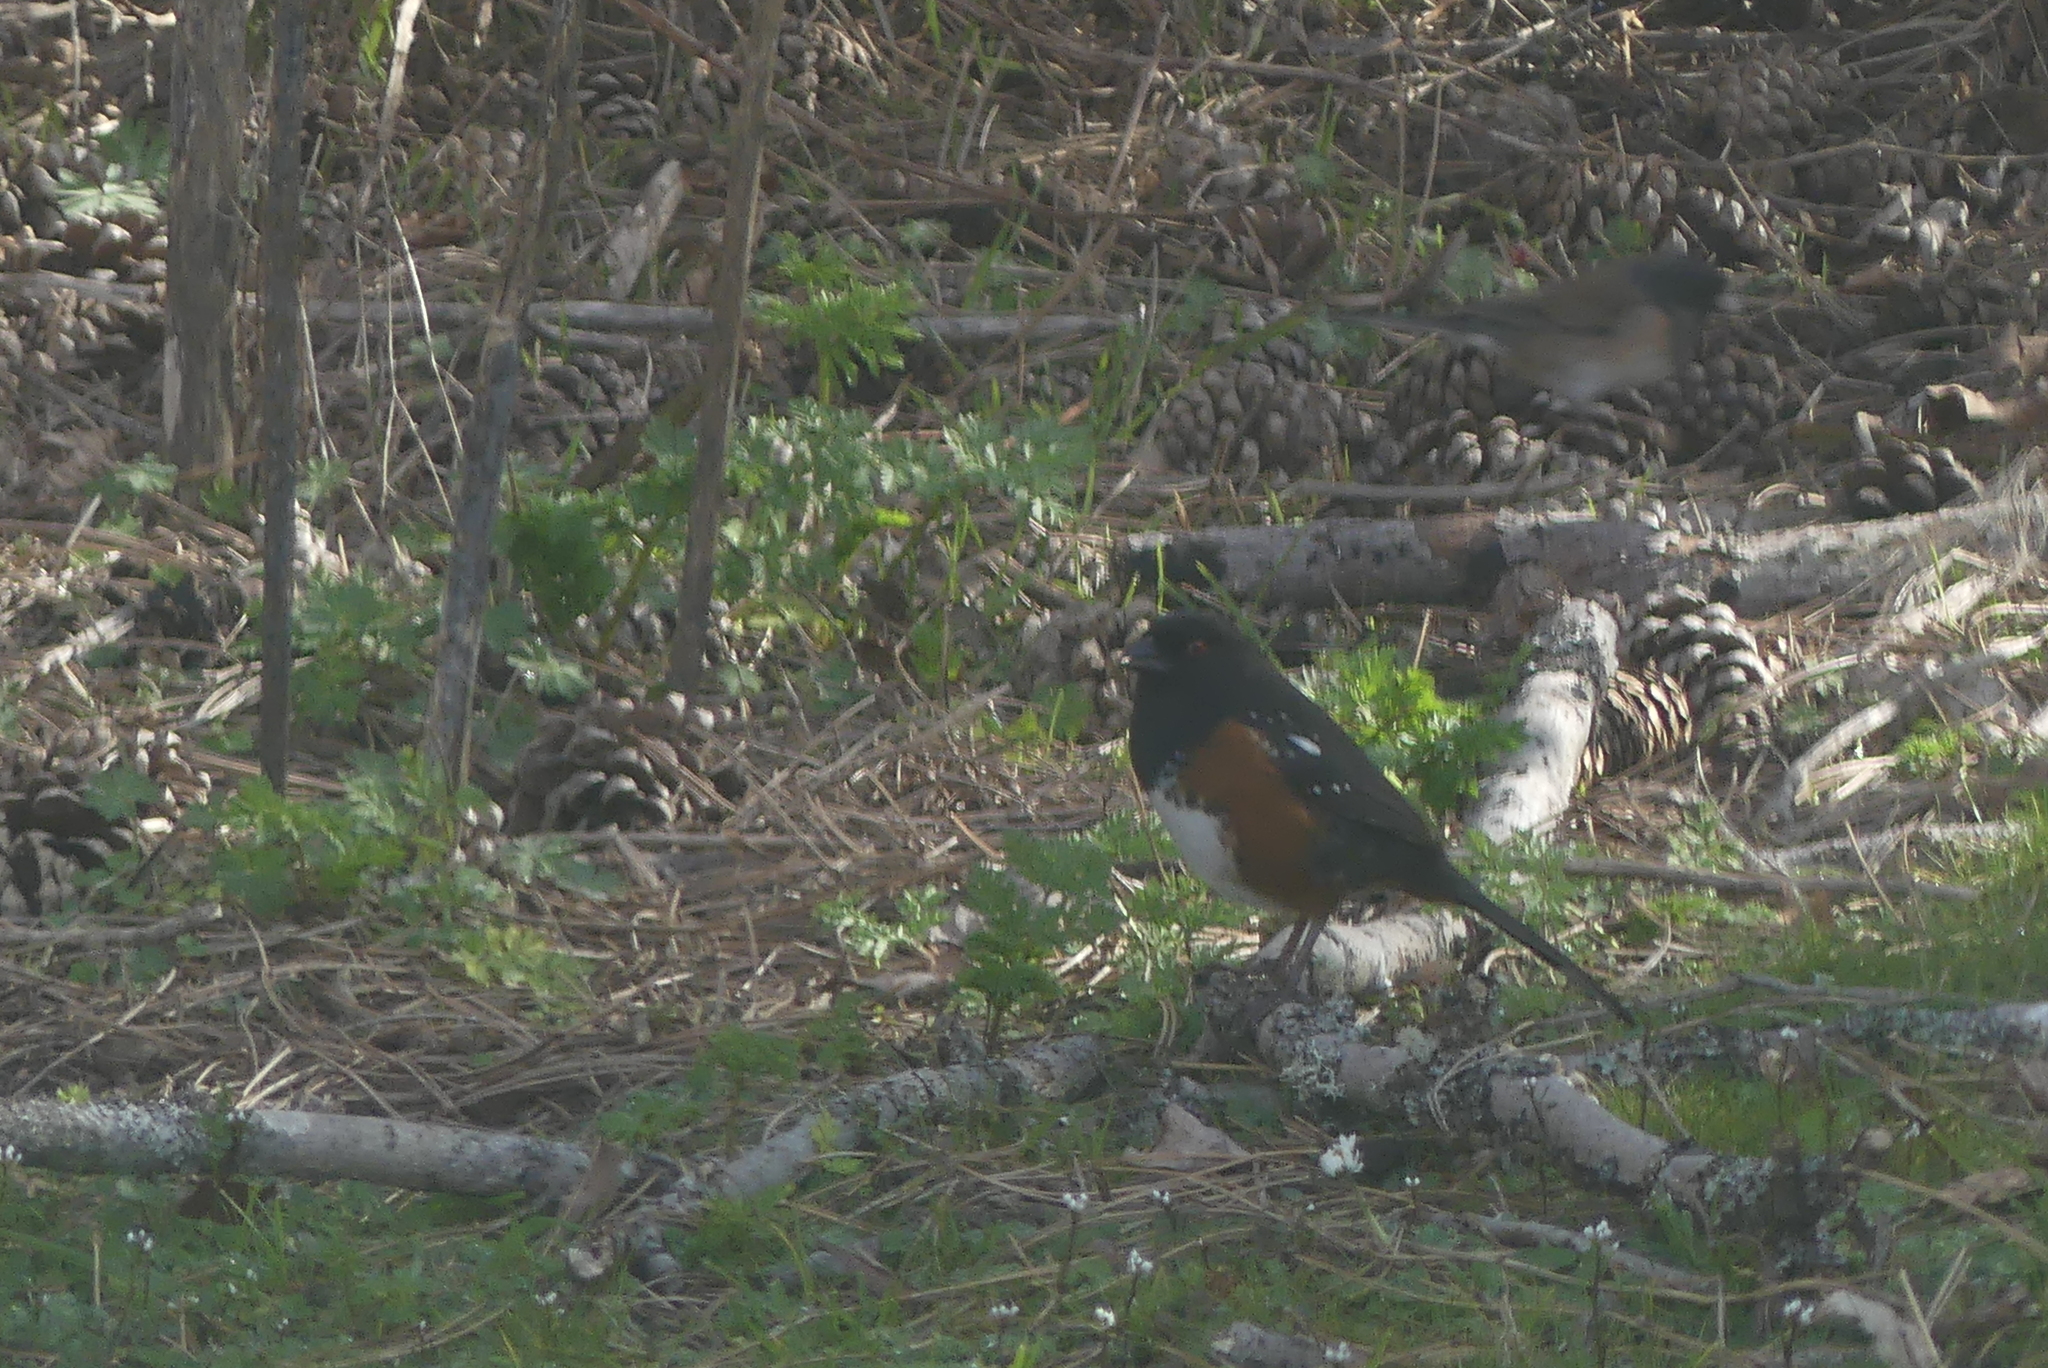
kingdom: Animalia
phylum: Chordata
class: Aves
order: Passeriformes
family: Passerellidae
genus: Pipilo
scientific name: Pipilo maculatus
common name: Spotted towhee
